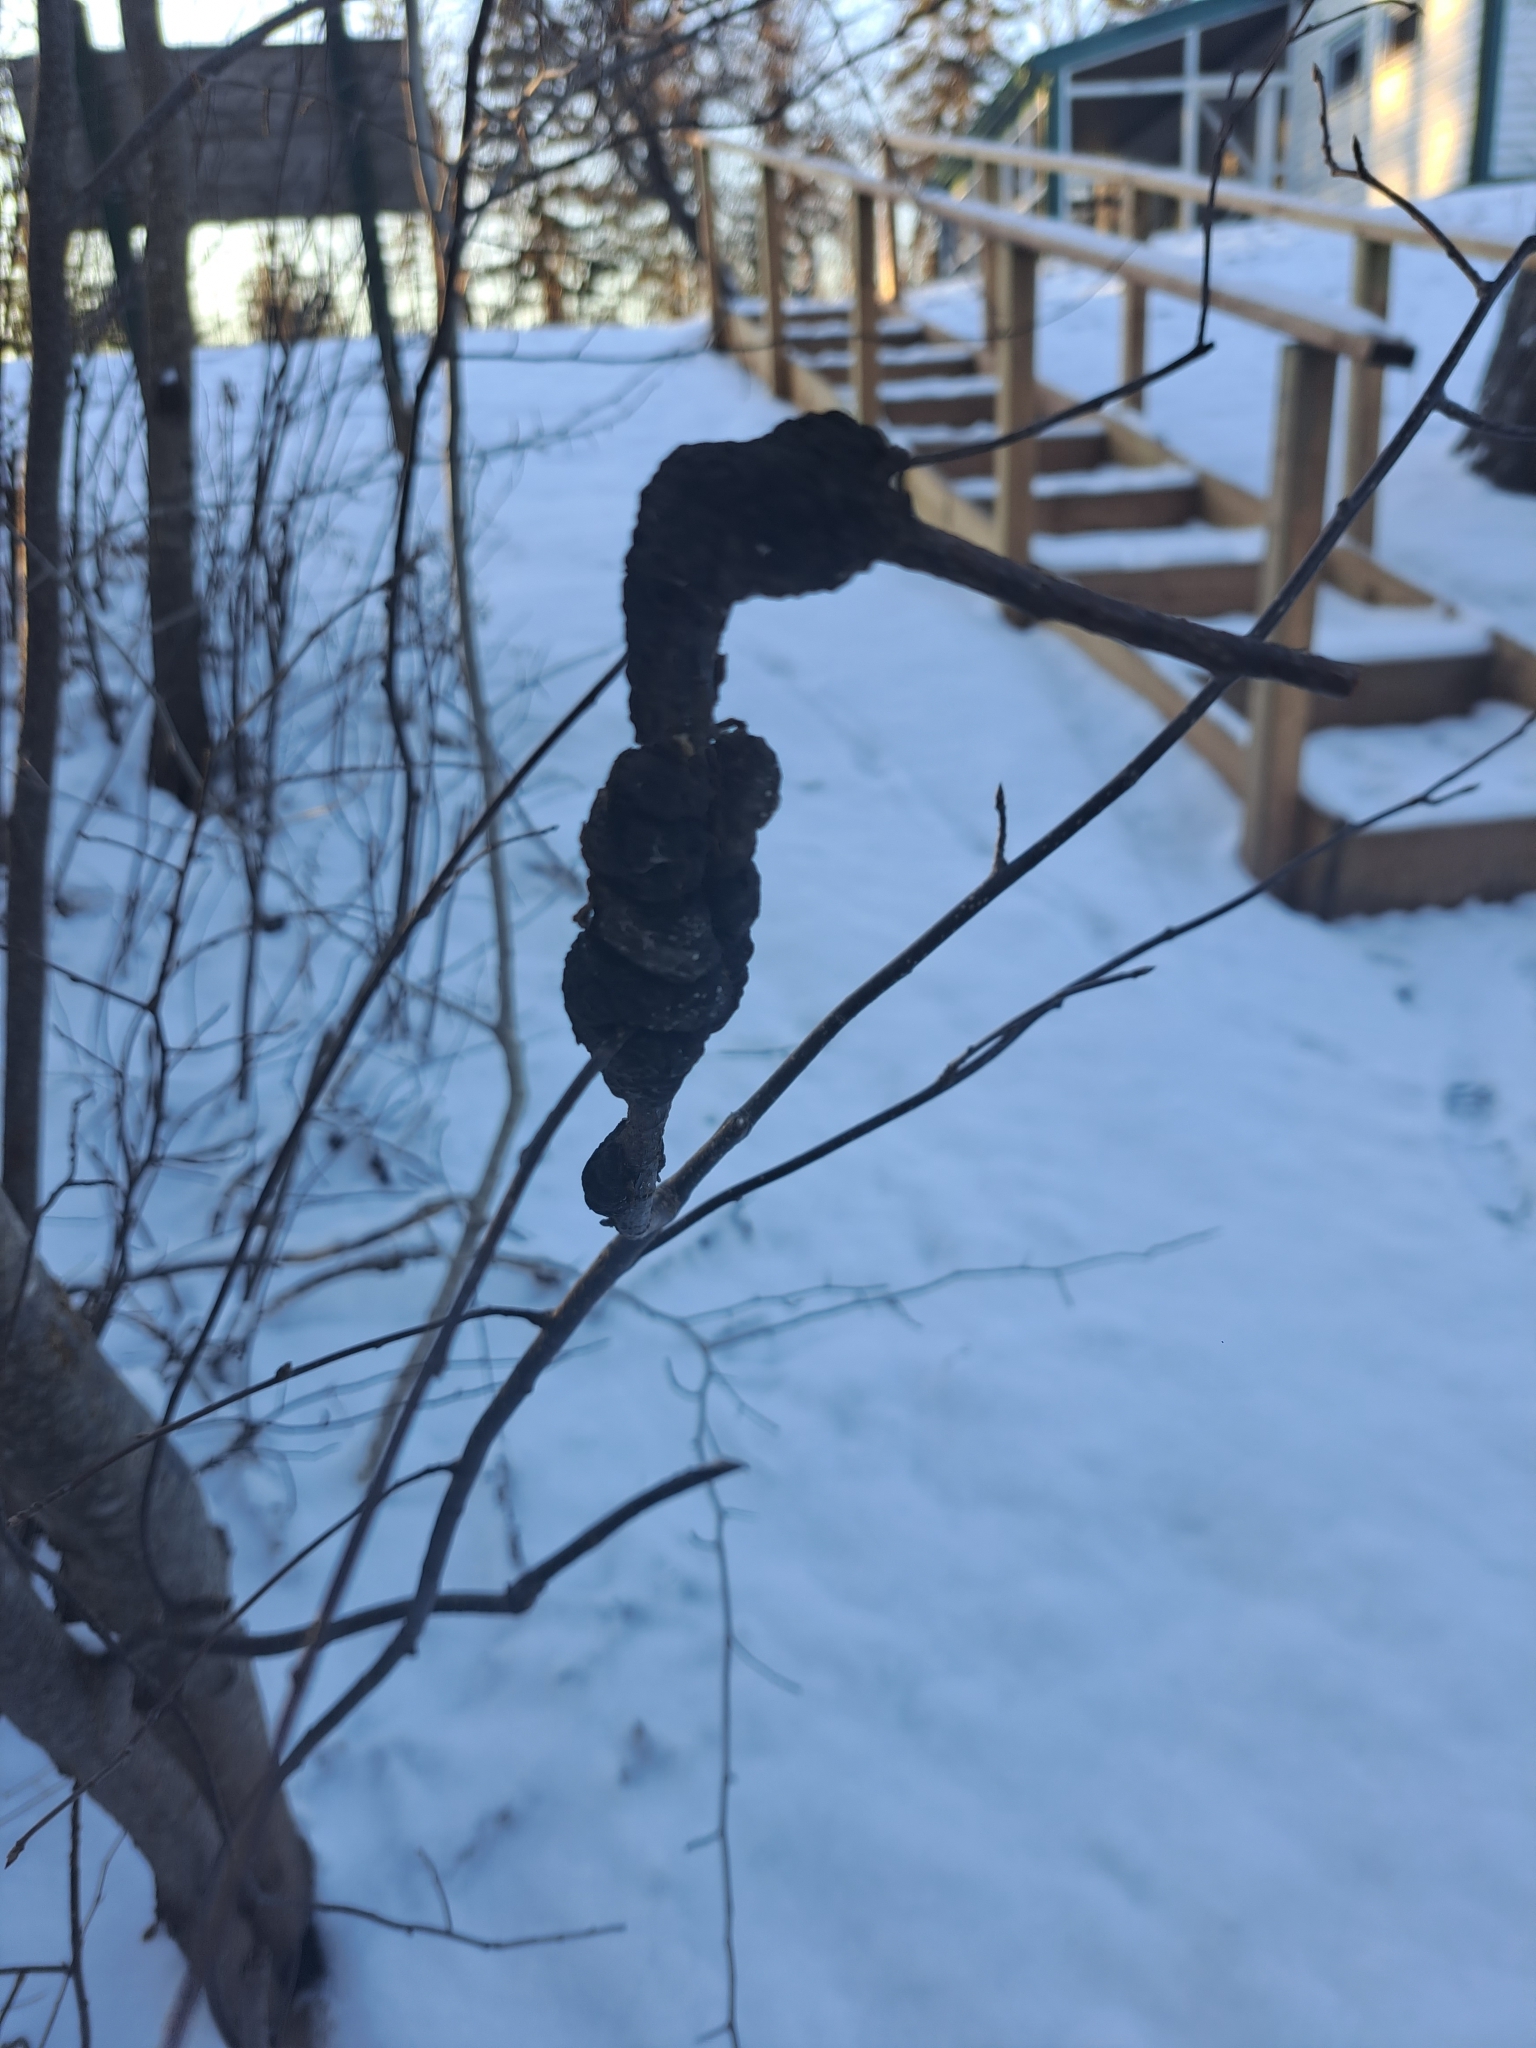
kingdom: Fungi
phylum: Ascomycota
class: Dothideomycetes
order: Venturiales
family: Venturiaceae
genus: Apiosporina
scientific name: Apiosporina morbosa
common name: Black knot
